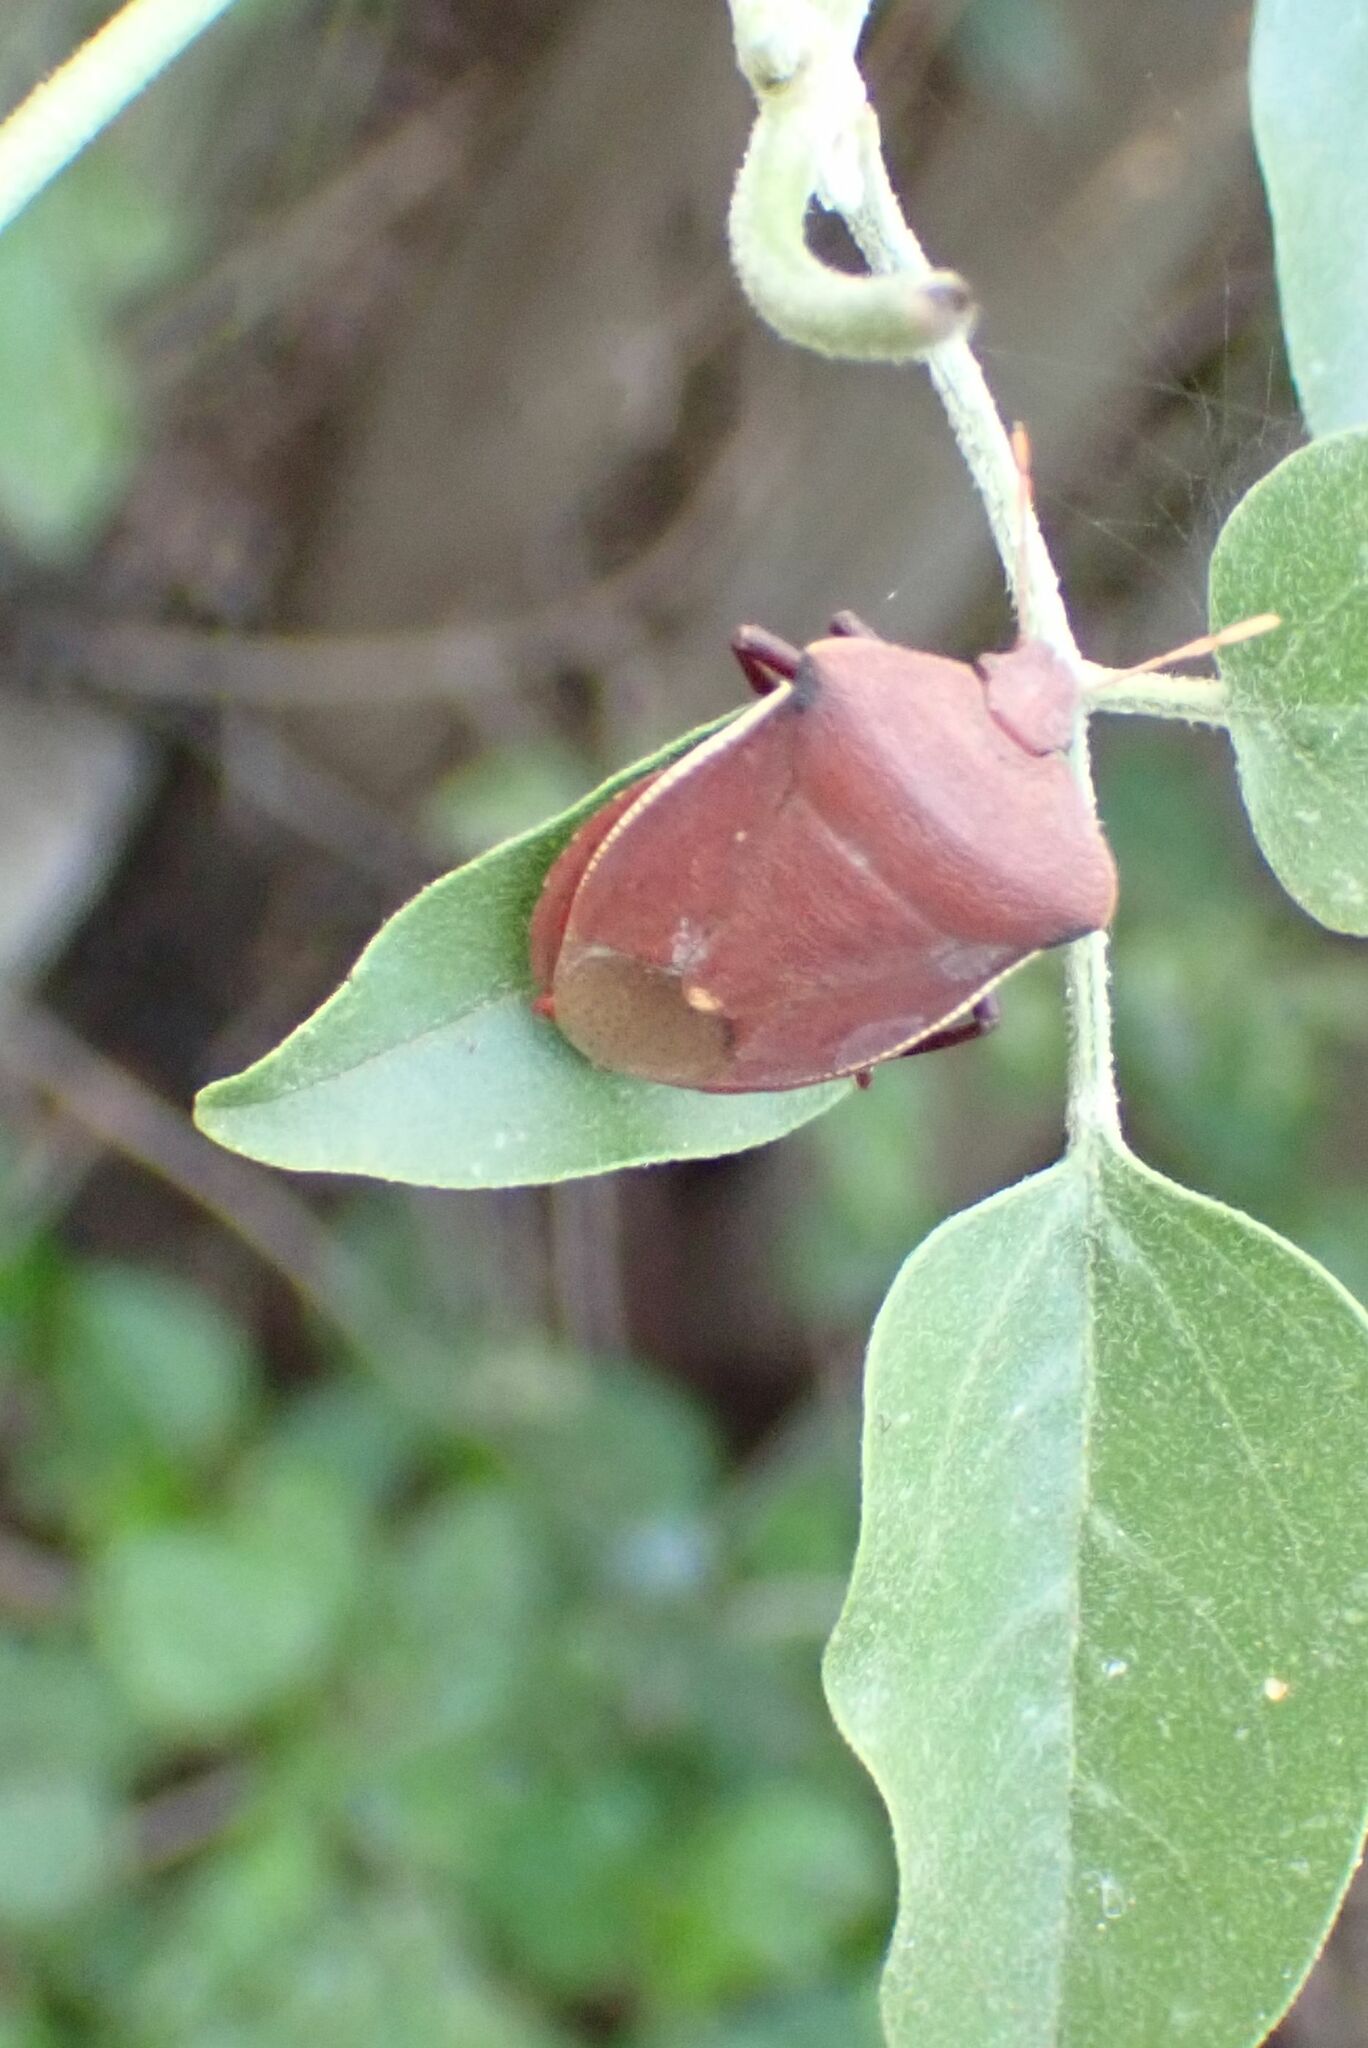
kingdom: Animalia
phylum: Arthropoda
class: Insecta
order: Hemiptera
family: Pentatomidae
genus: Basicryptus
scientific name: Basicryptus costalis
